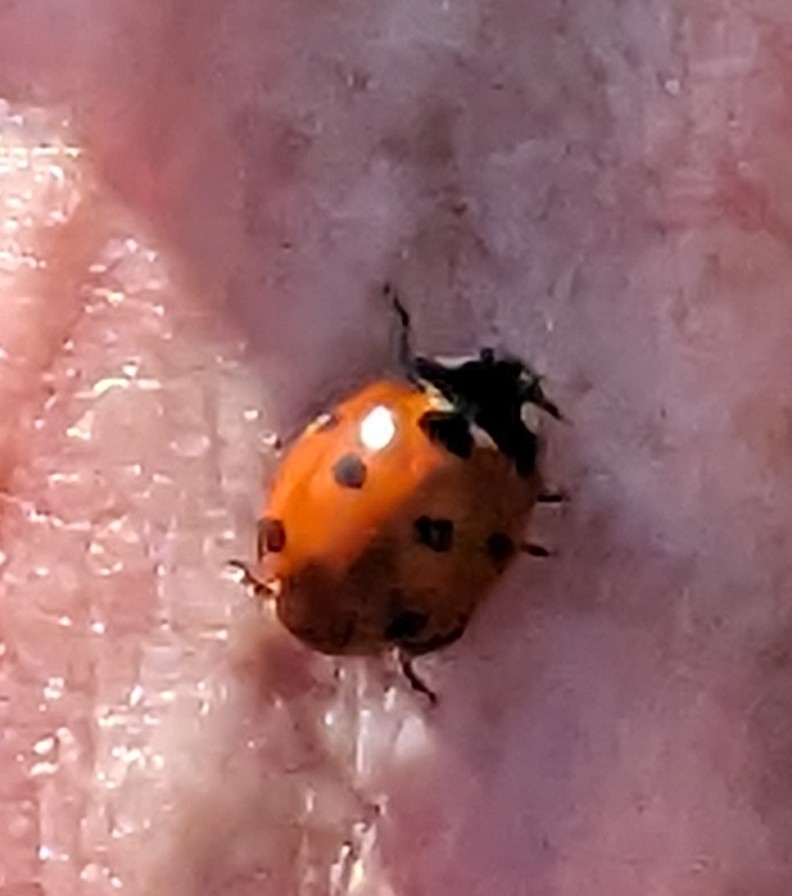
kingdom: Animalia
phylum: Arthropoda
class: Insecta
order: Coleoptera
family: Coccinellidae
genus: Coccinella
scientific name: Coccinella septempunctata
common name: Sevenspotted lady beetle
